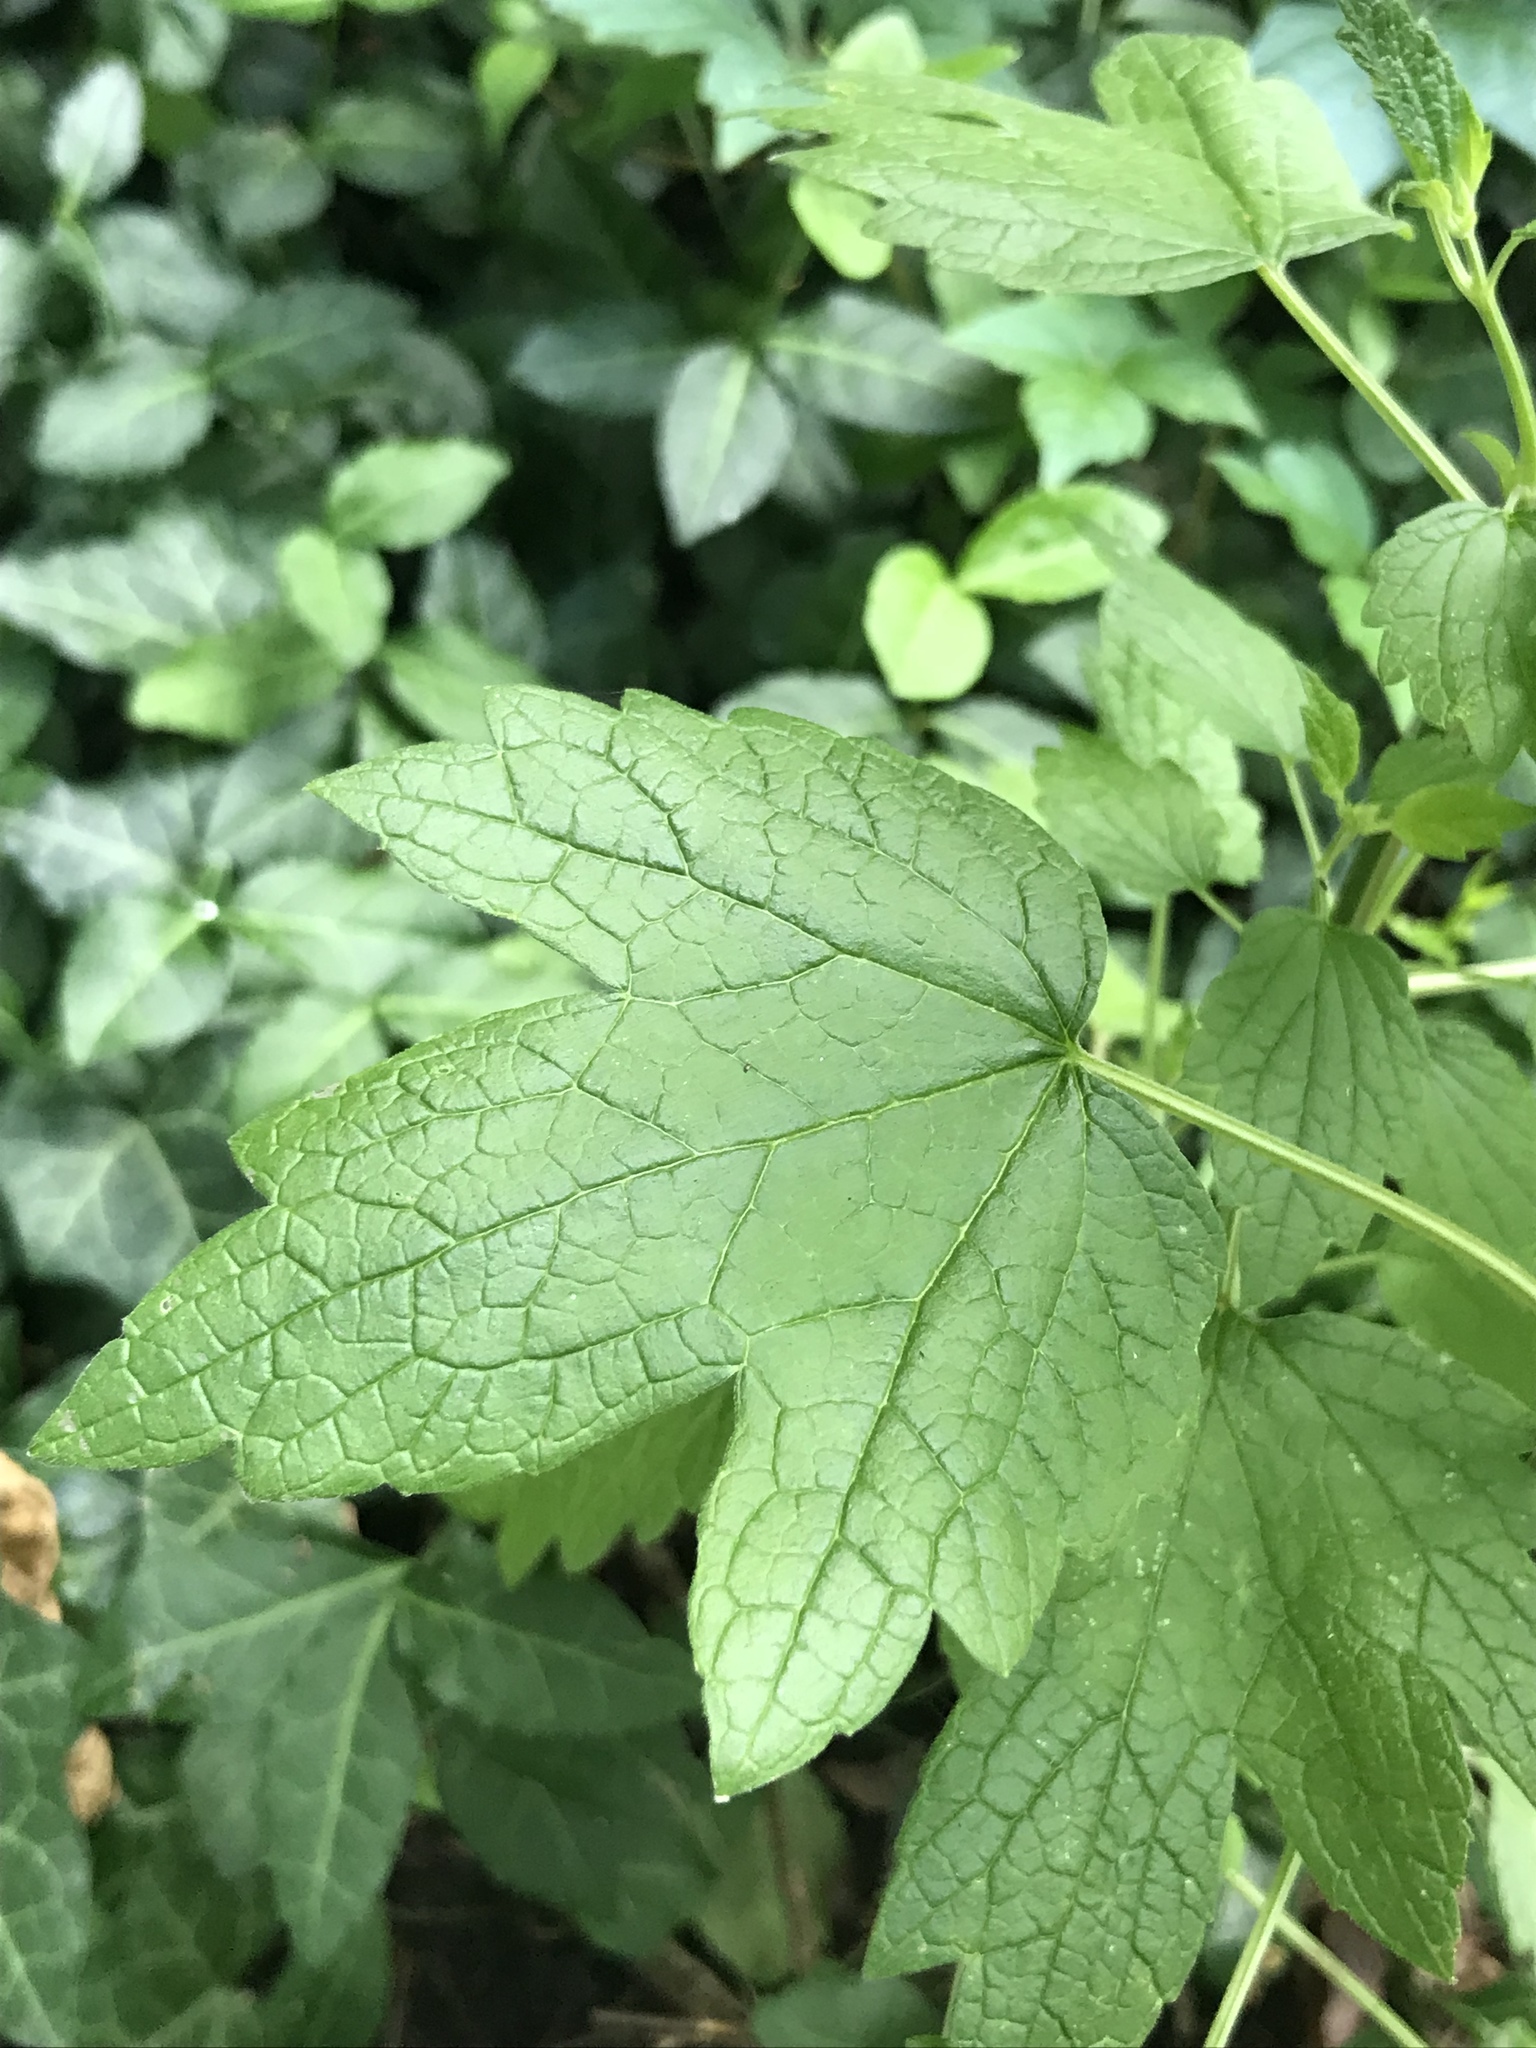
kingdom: Plantae
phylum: Tracheophyta
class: Magnoliopsida
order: Lamiales
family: Lamiaceae
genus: Leonurus
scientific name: Leonurus cardiaca
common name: Motherwort
